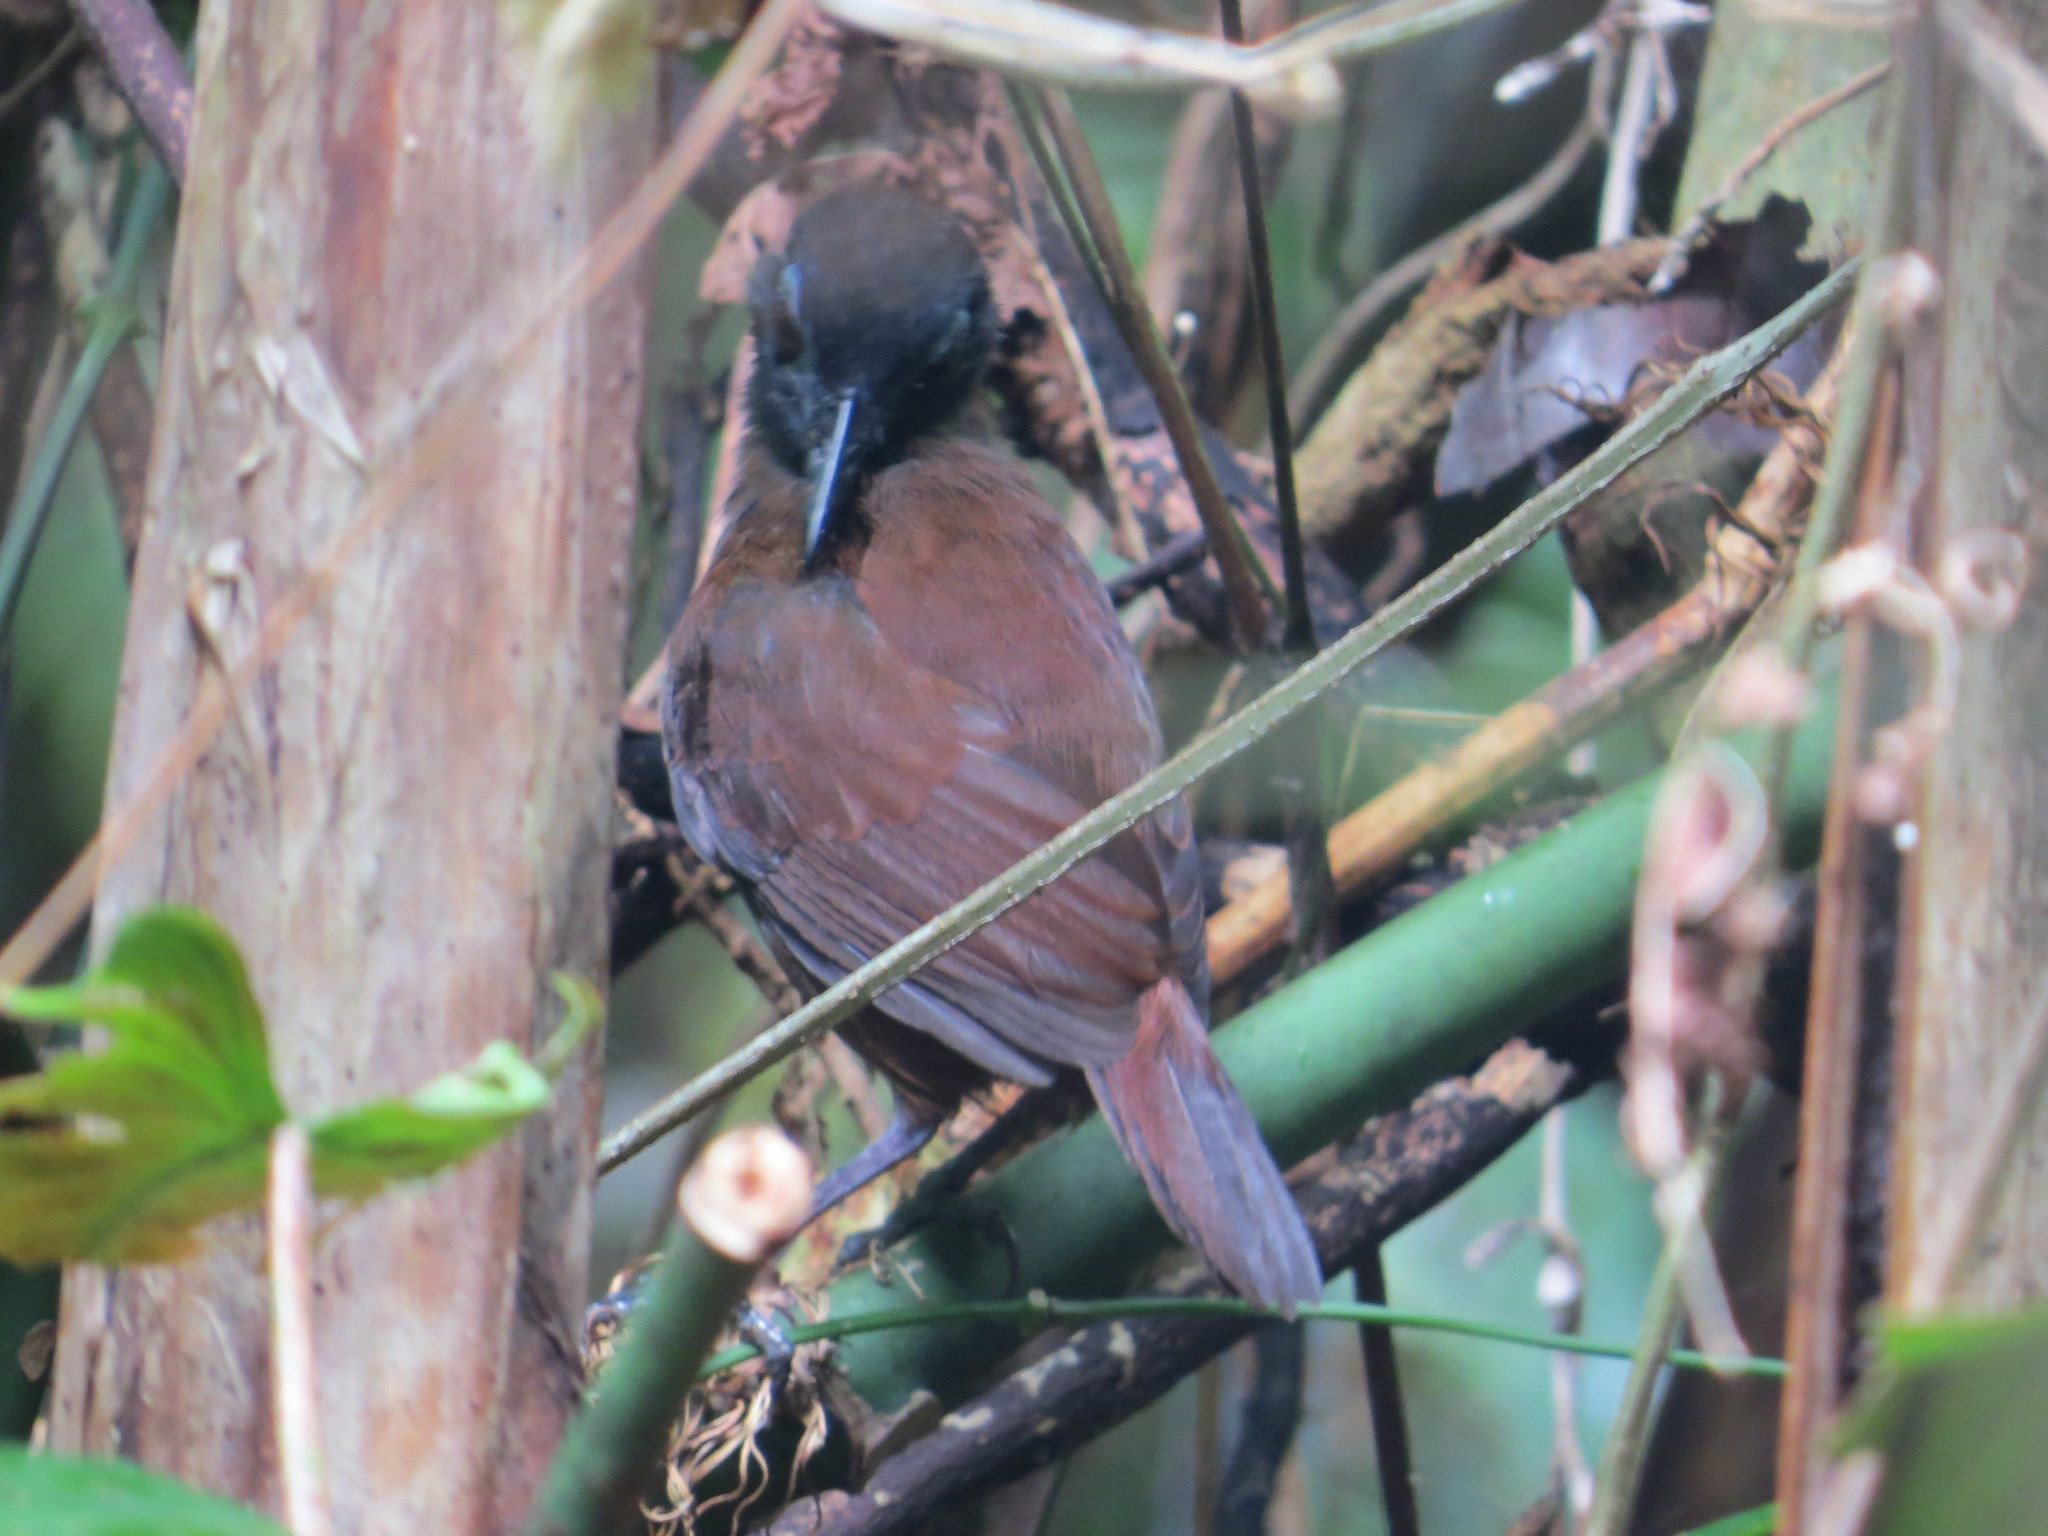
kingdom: Animalia
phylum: Chordata
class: Aves
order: Passeriformes
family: Thamnophilidae
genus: Myrmeciza
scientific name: Myrmeciza exsul
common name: Chestnut-backed antbird
